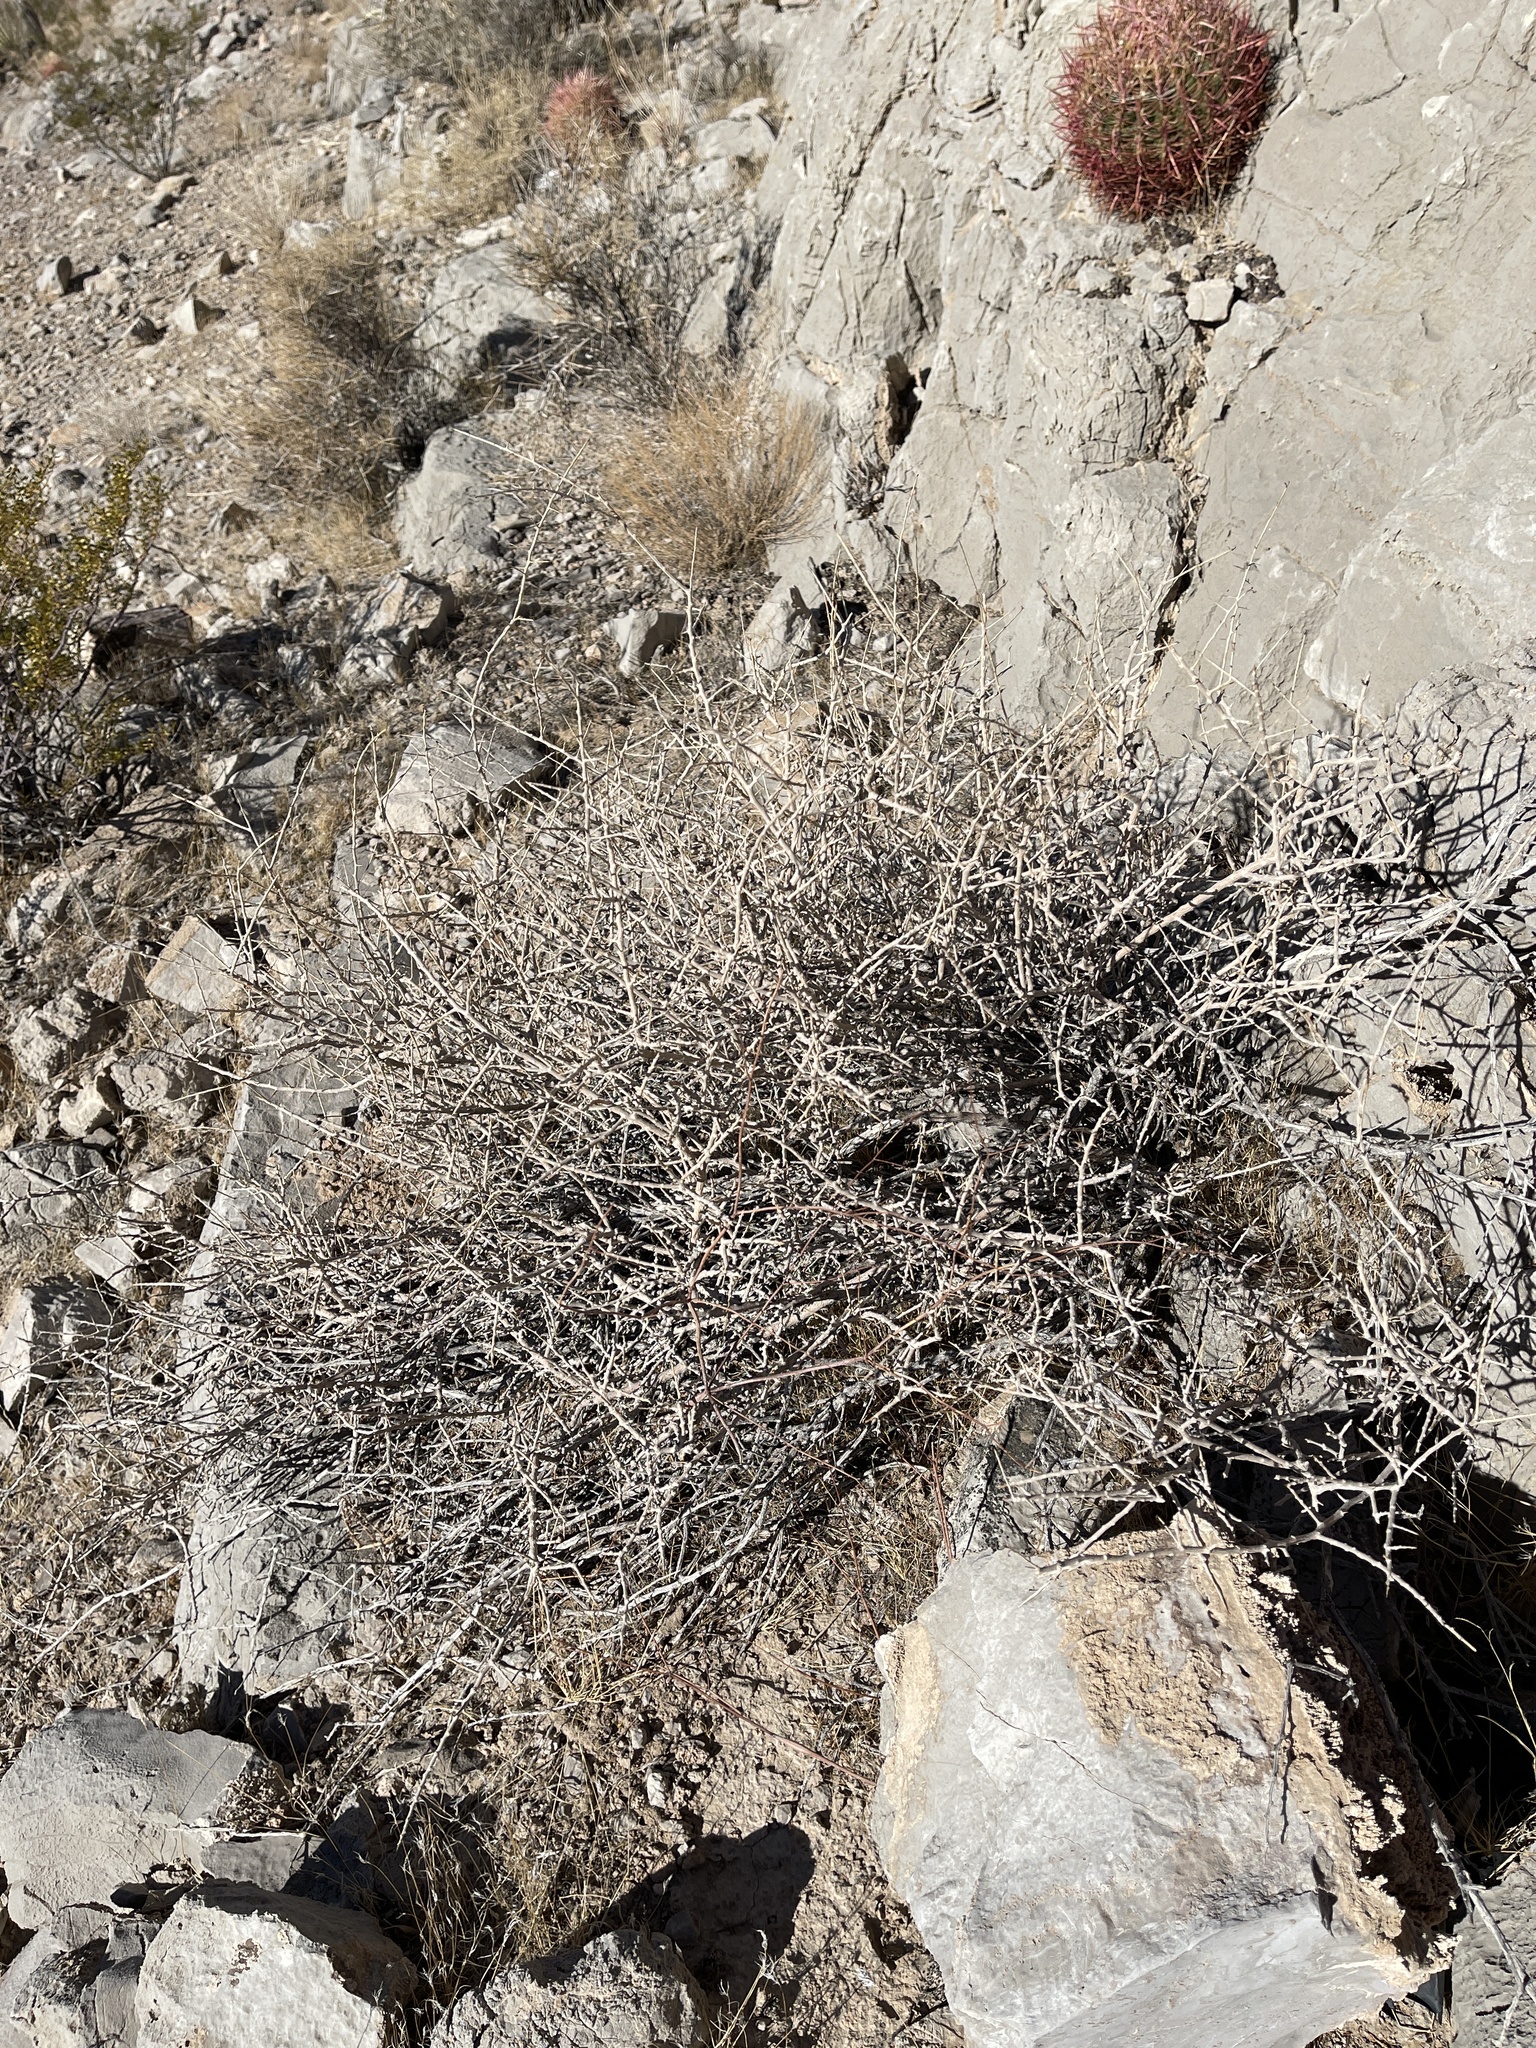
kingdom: Plantae
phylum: Tracheophyta
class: Magnoliopsida
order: Rosales
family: Rosaceae
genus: Prunus
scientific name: Prunus fasciculata
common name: Desert almond
